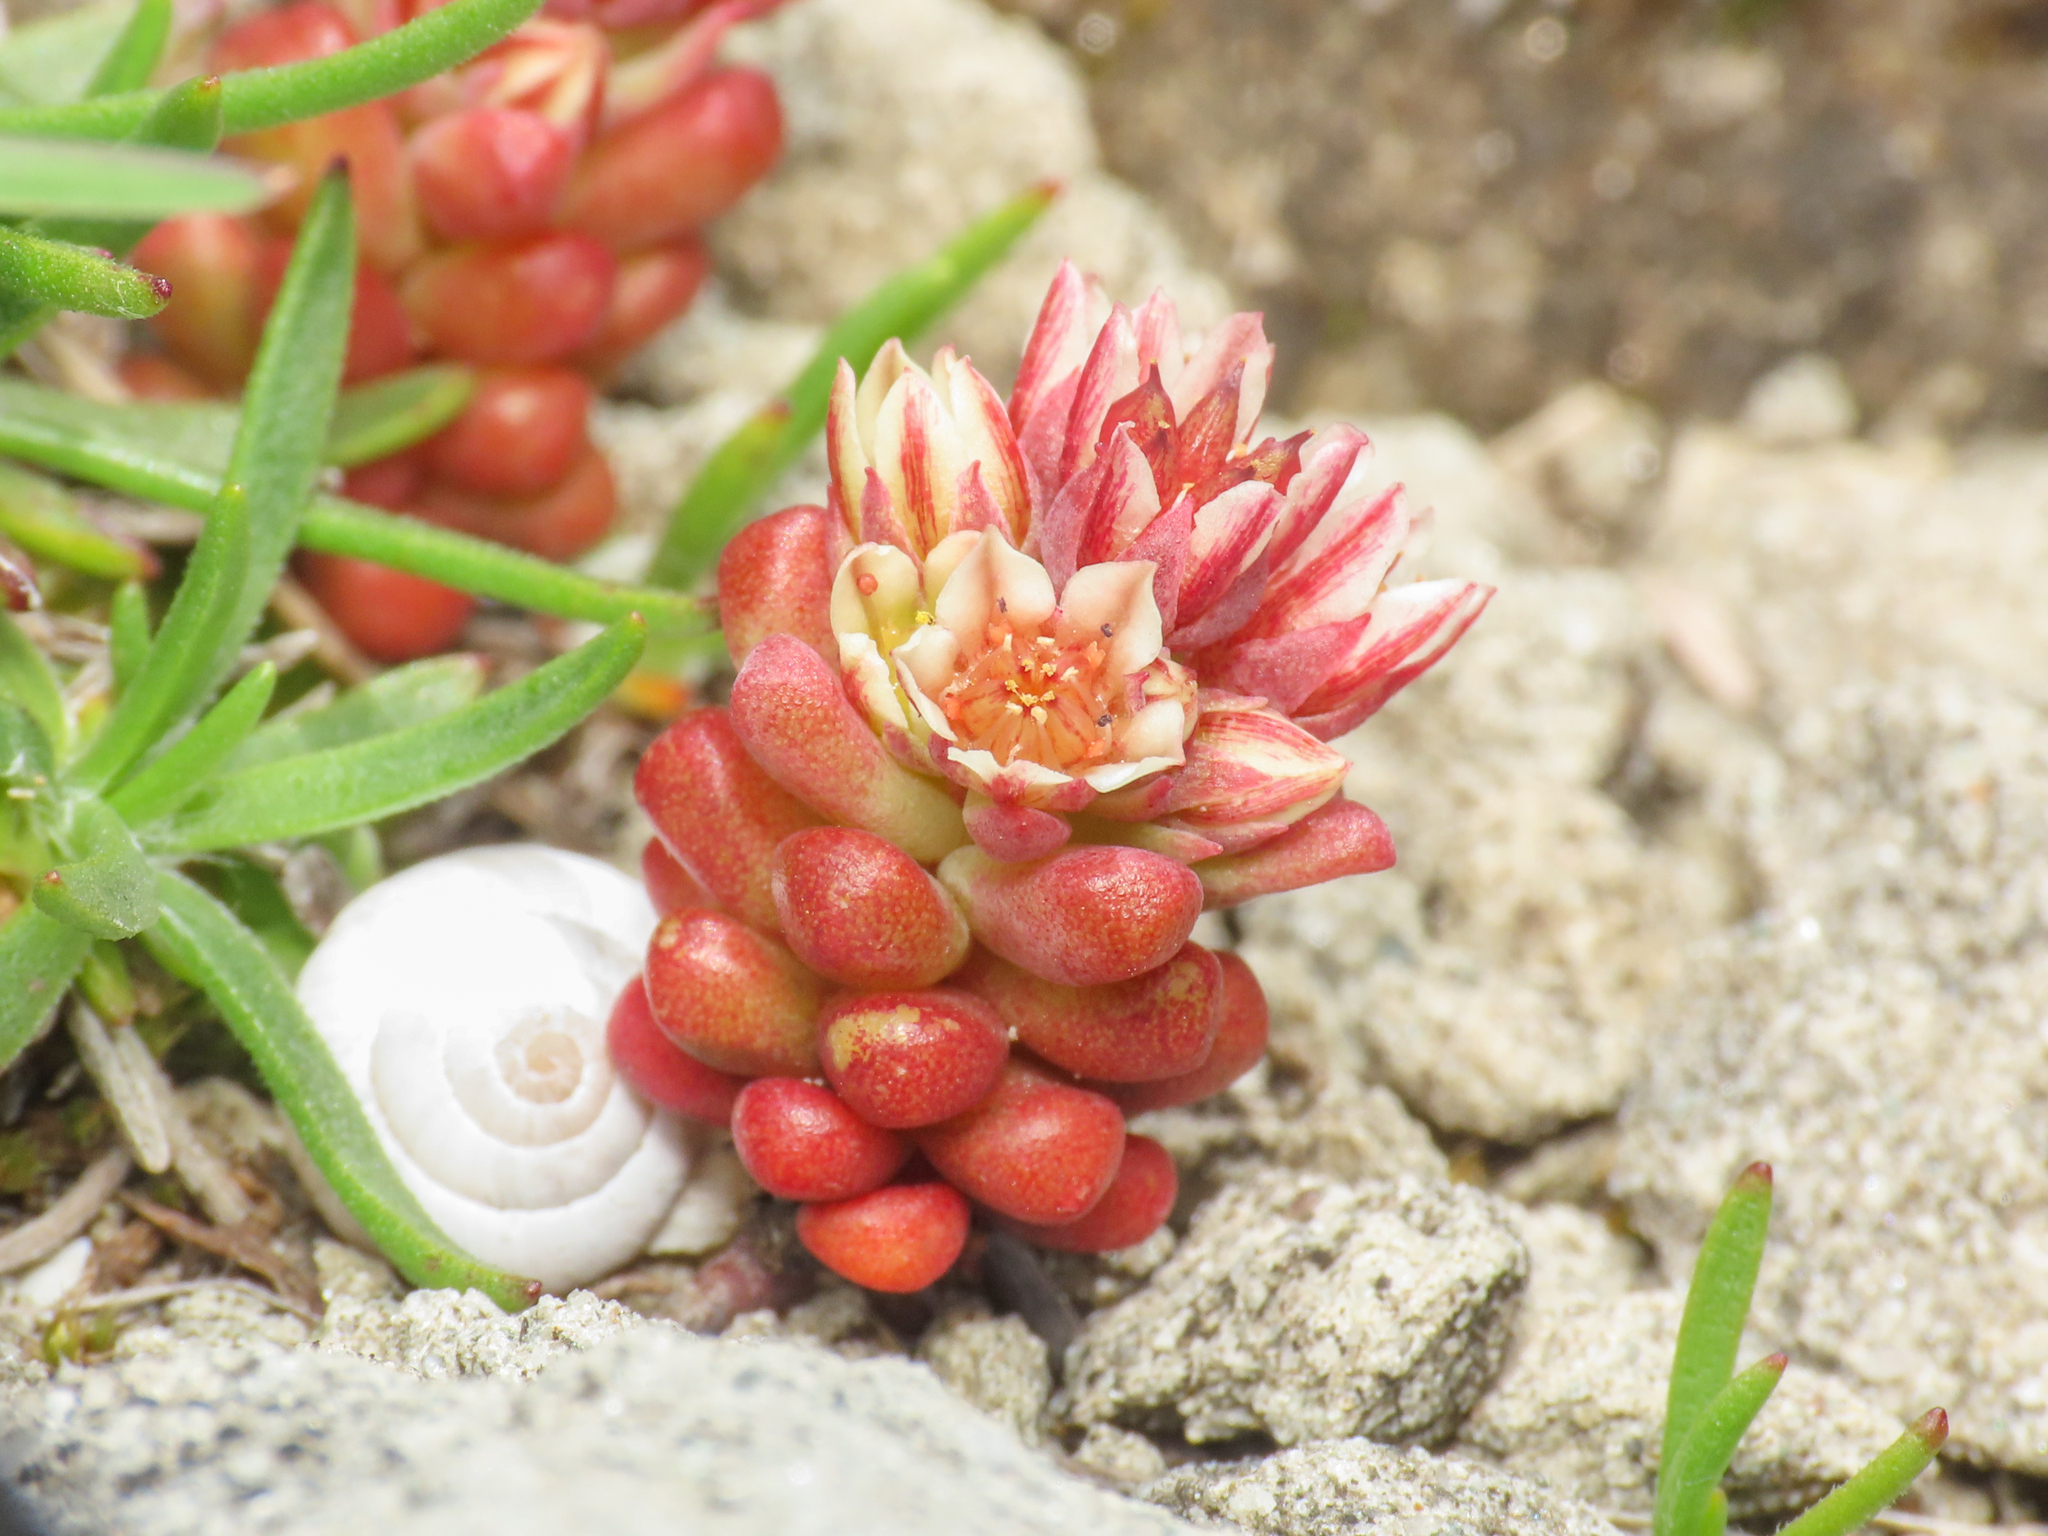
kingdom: Plantae
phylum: Tracheophyta
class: Magnoliopsida
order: Saxifragales
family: Crassulaceae
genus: Sedum
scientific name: Sedum atratum
